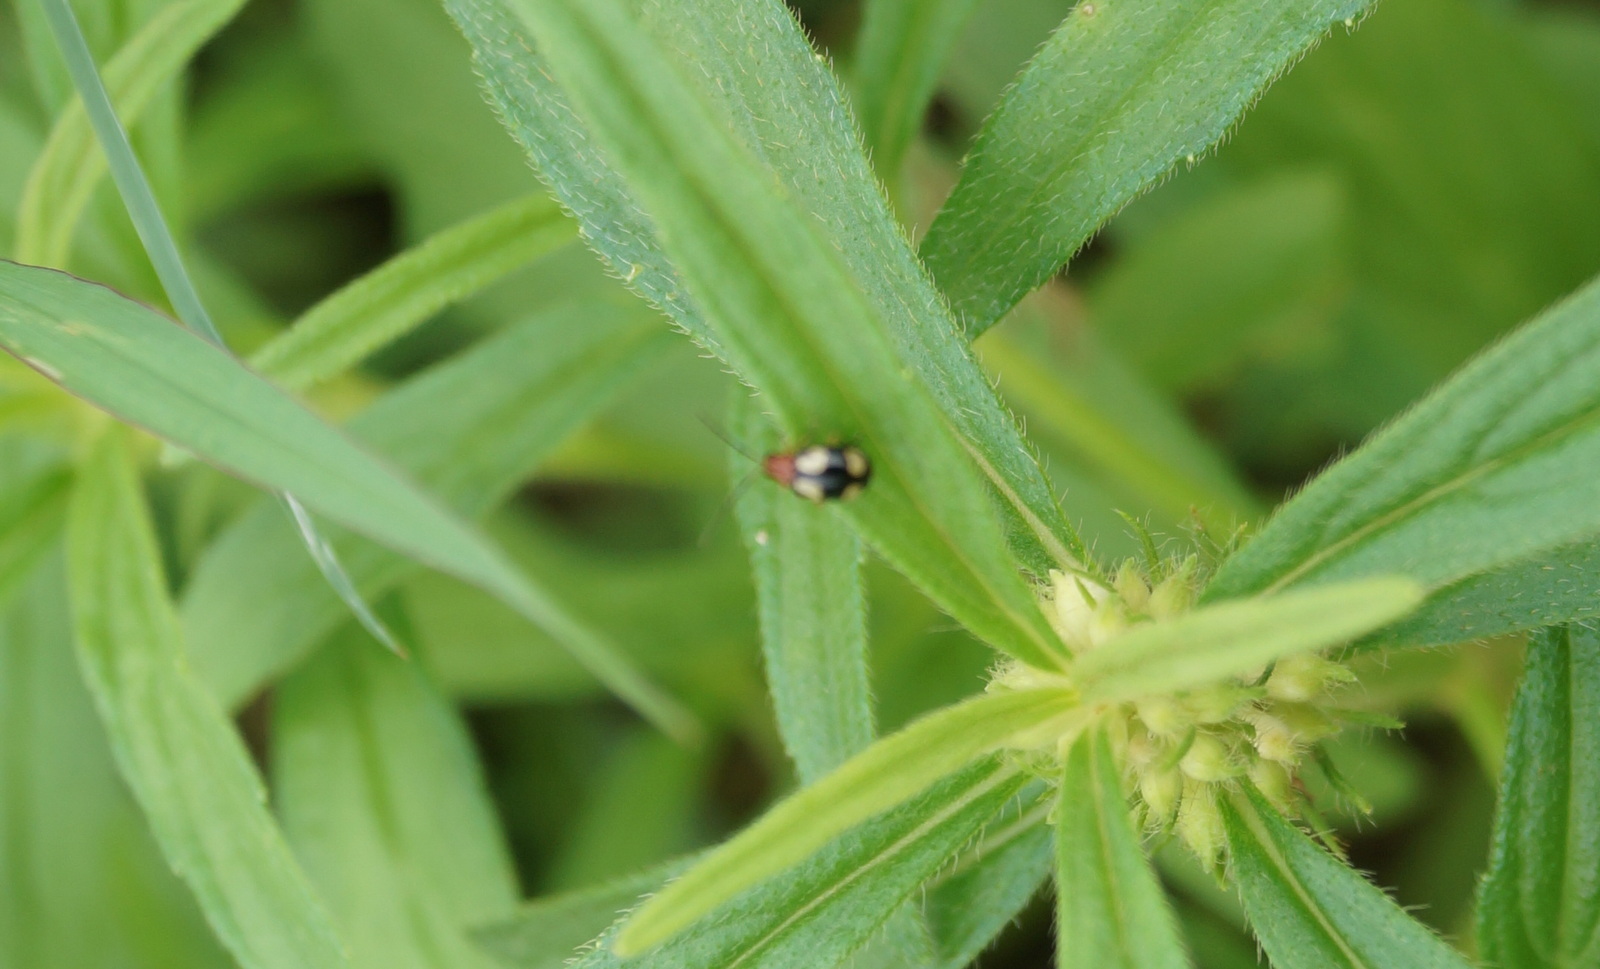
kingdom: Animalia
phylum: Arthropoda
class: Insecta
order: Coleoptera
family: Chrysomelidae
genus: Monolepta
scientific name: Monolepta signata
